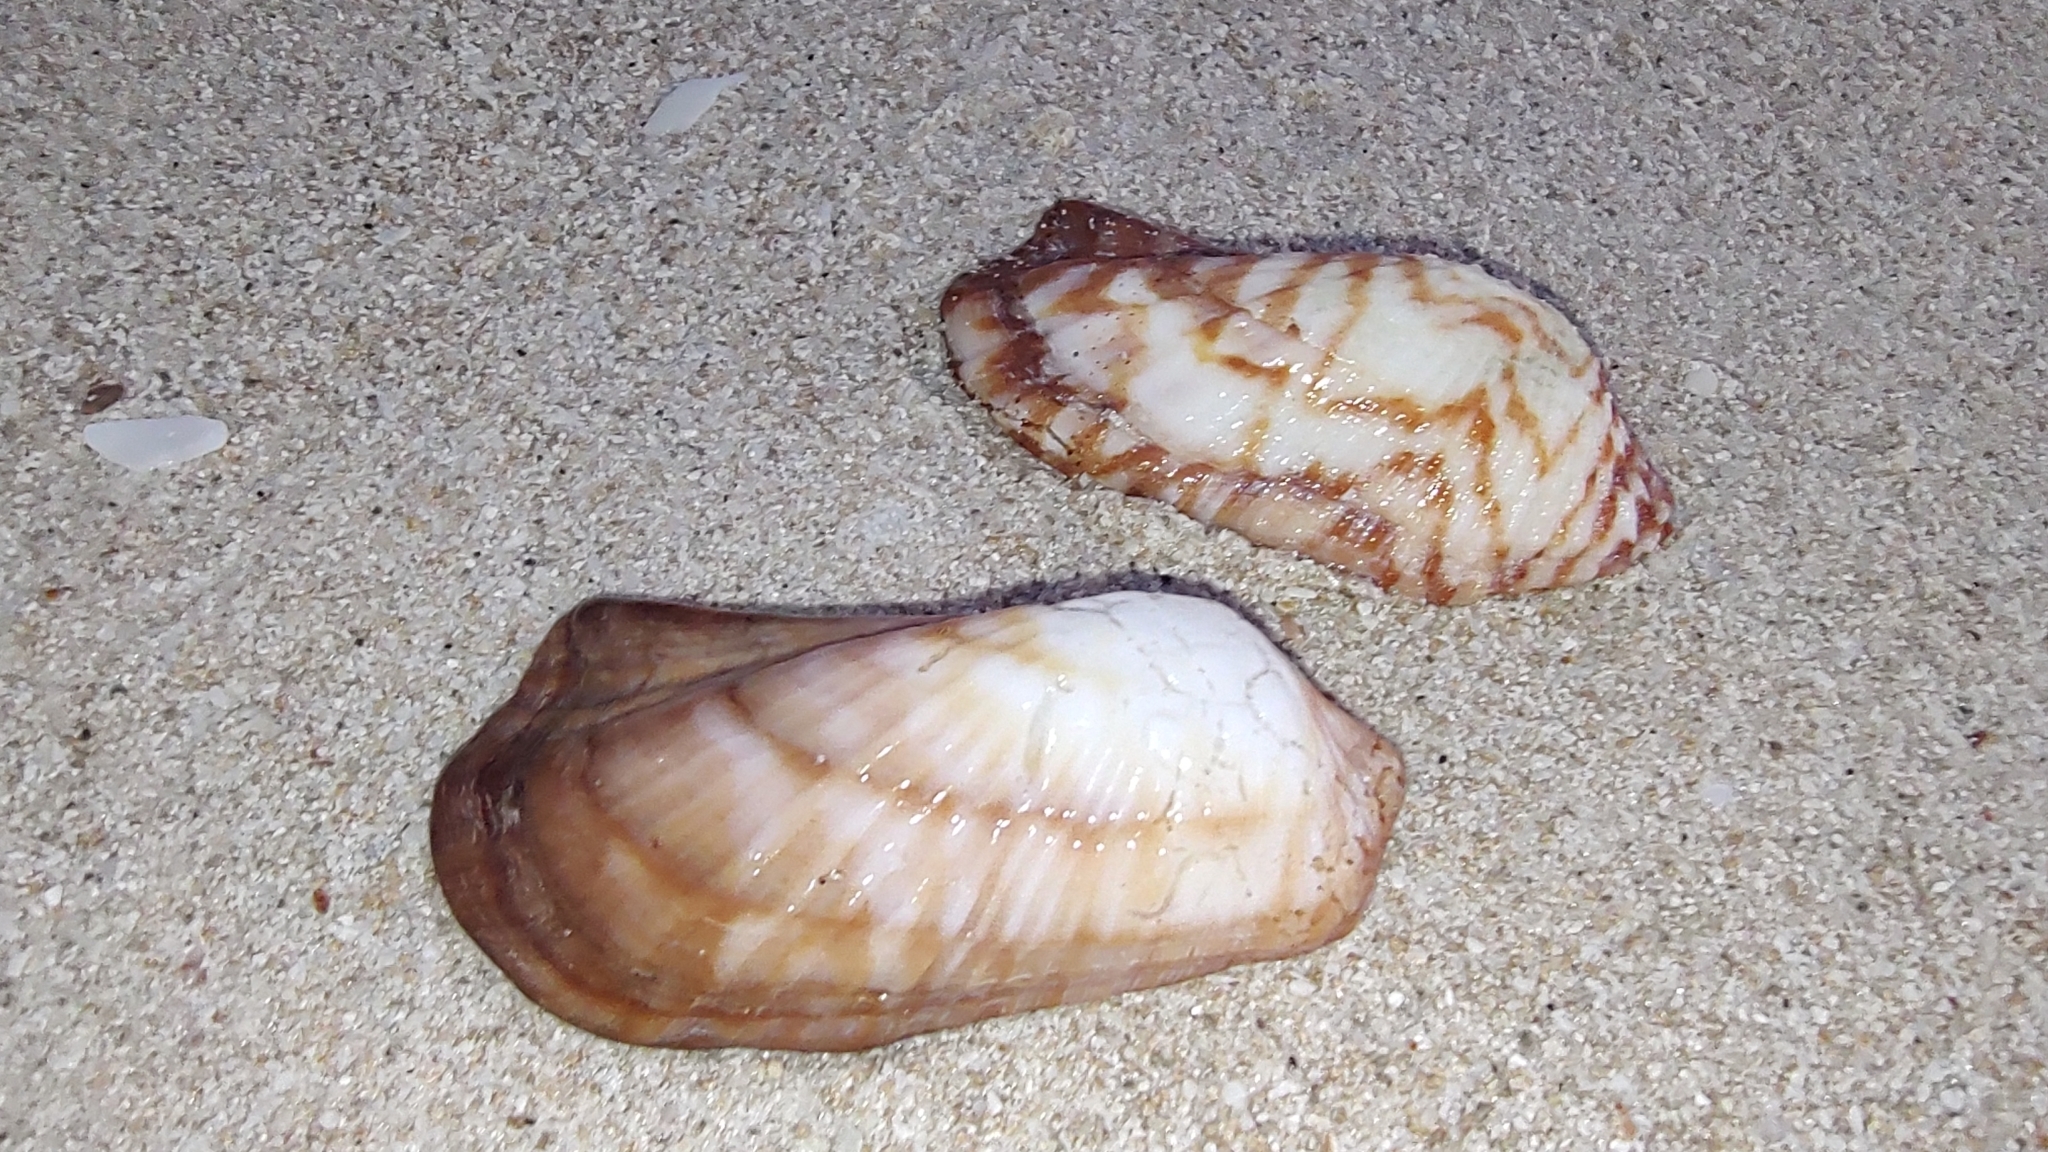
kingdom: Animalia
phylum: Mollusca
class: Bivalvia
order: Arcida
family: Arcidae
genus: Arca
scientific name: Arca zebra
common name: Atlantic turkey wing
